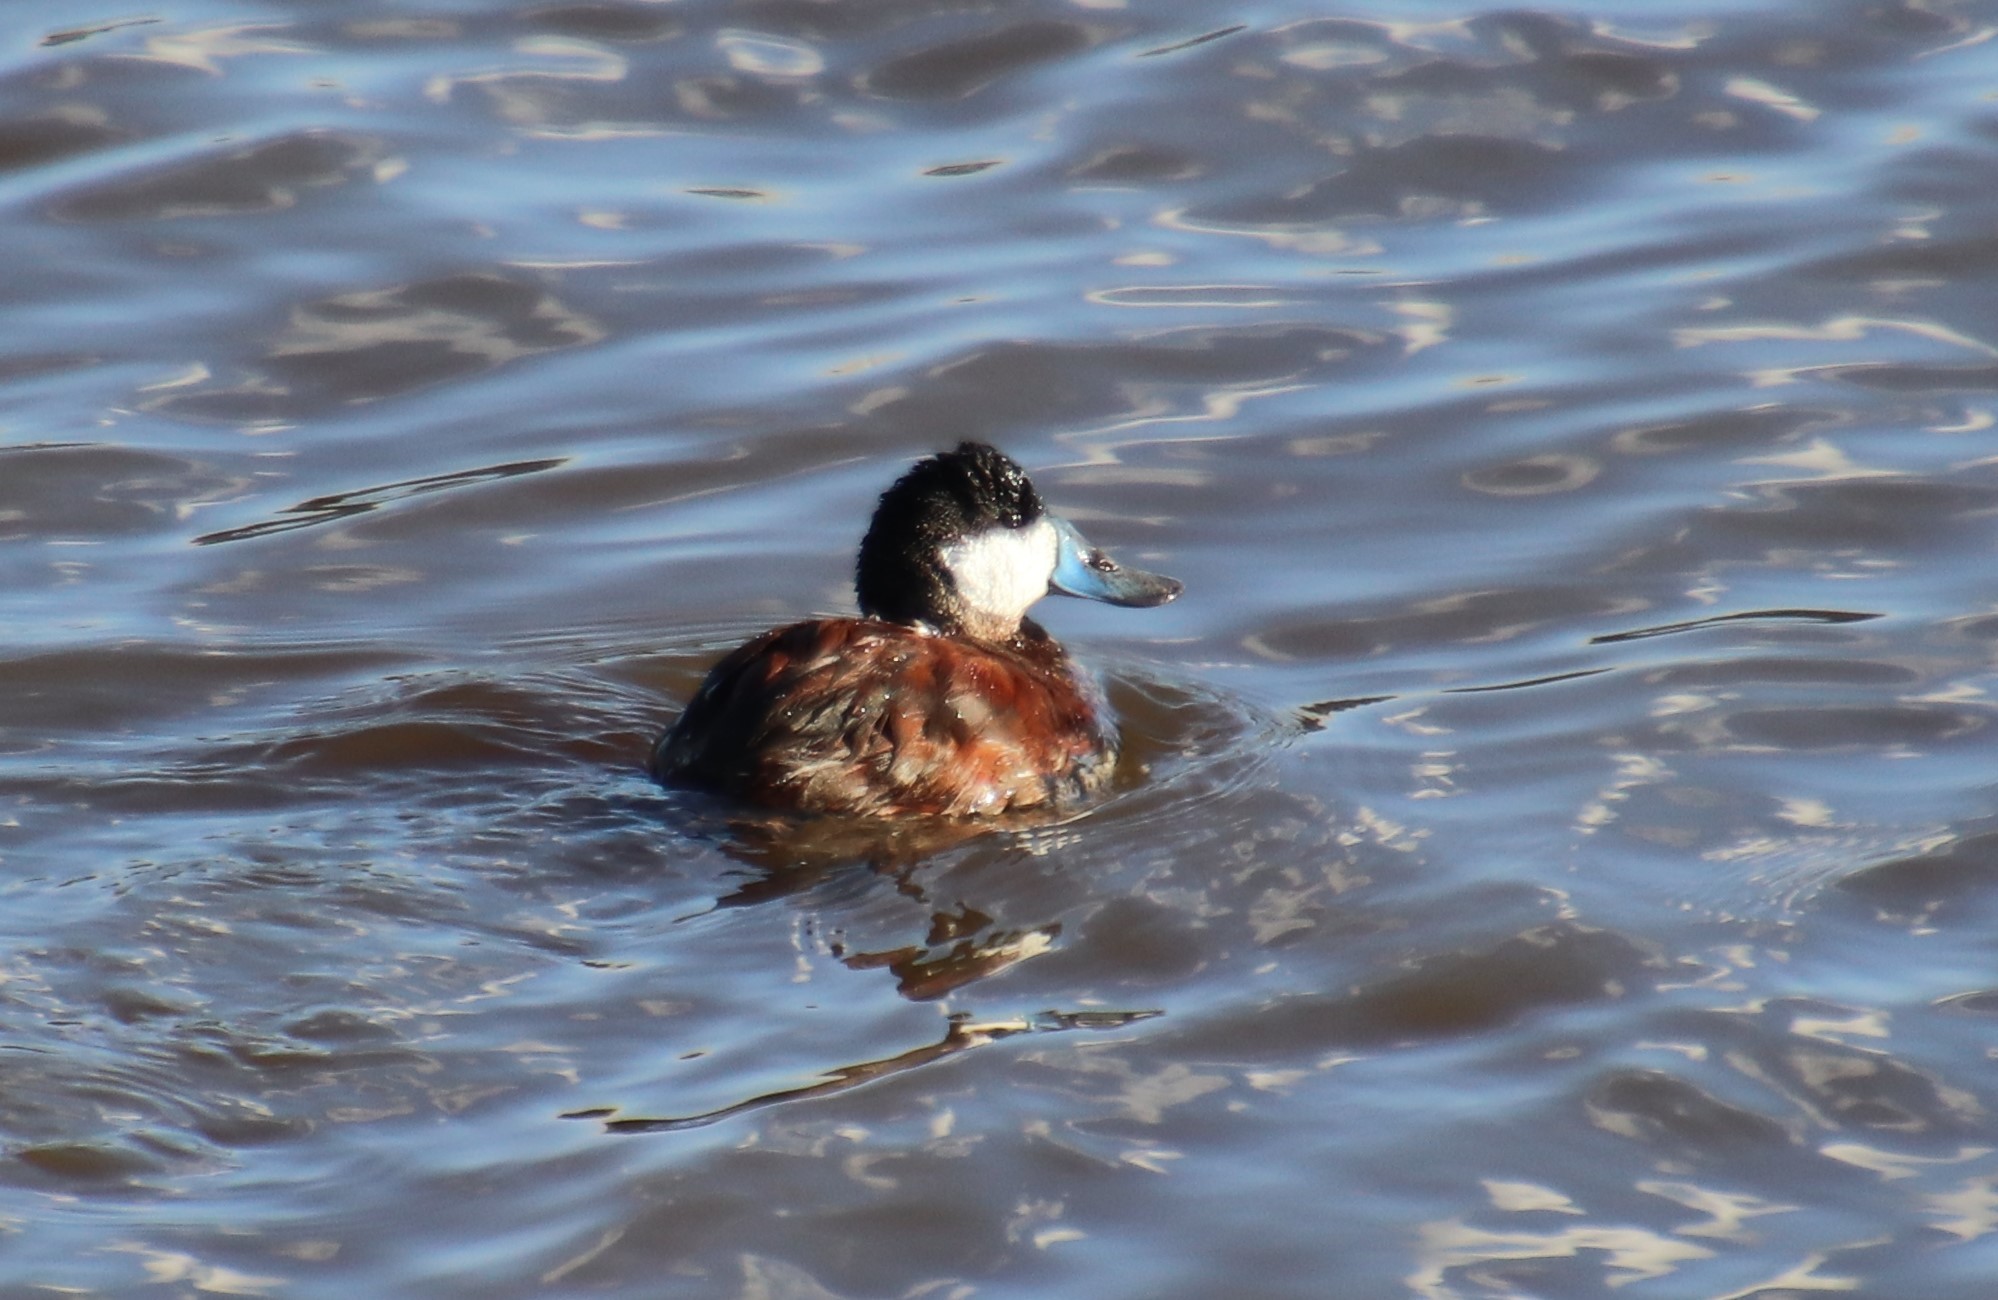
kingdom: Animalia
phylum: Chordata
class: Aves
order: Anseriformes
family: Anatidae
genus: Oxyura
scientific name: Oxyura jamaicensis
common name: Ruddy duck
